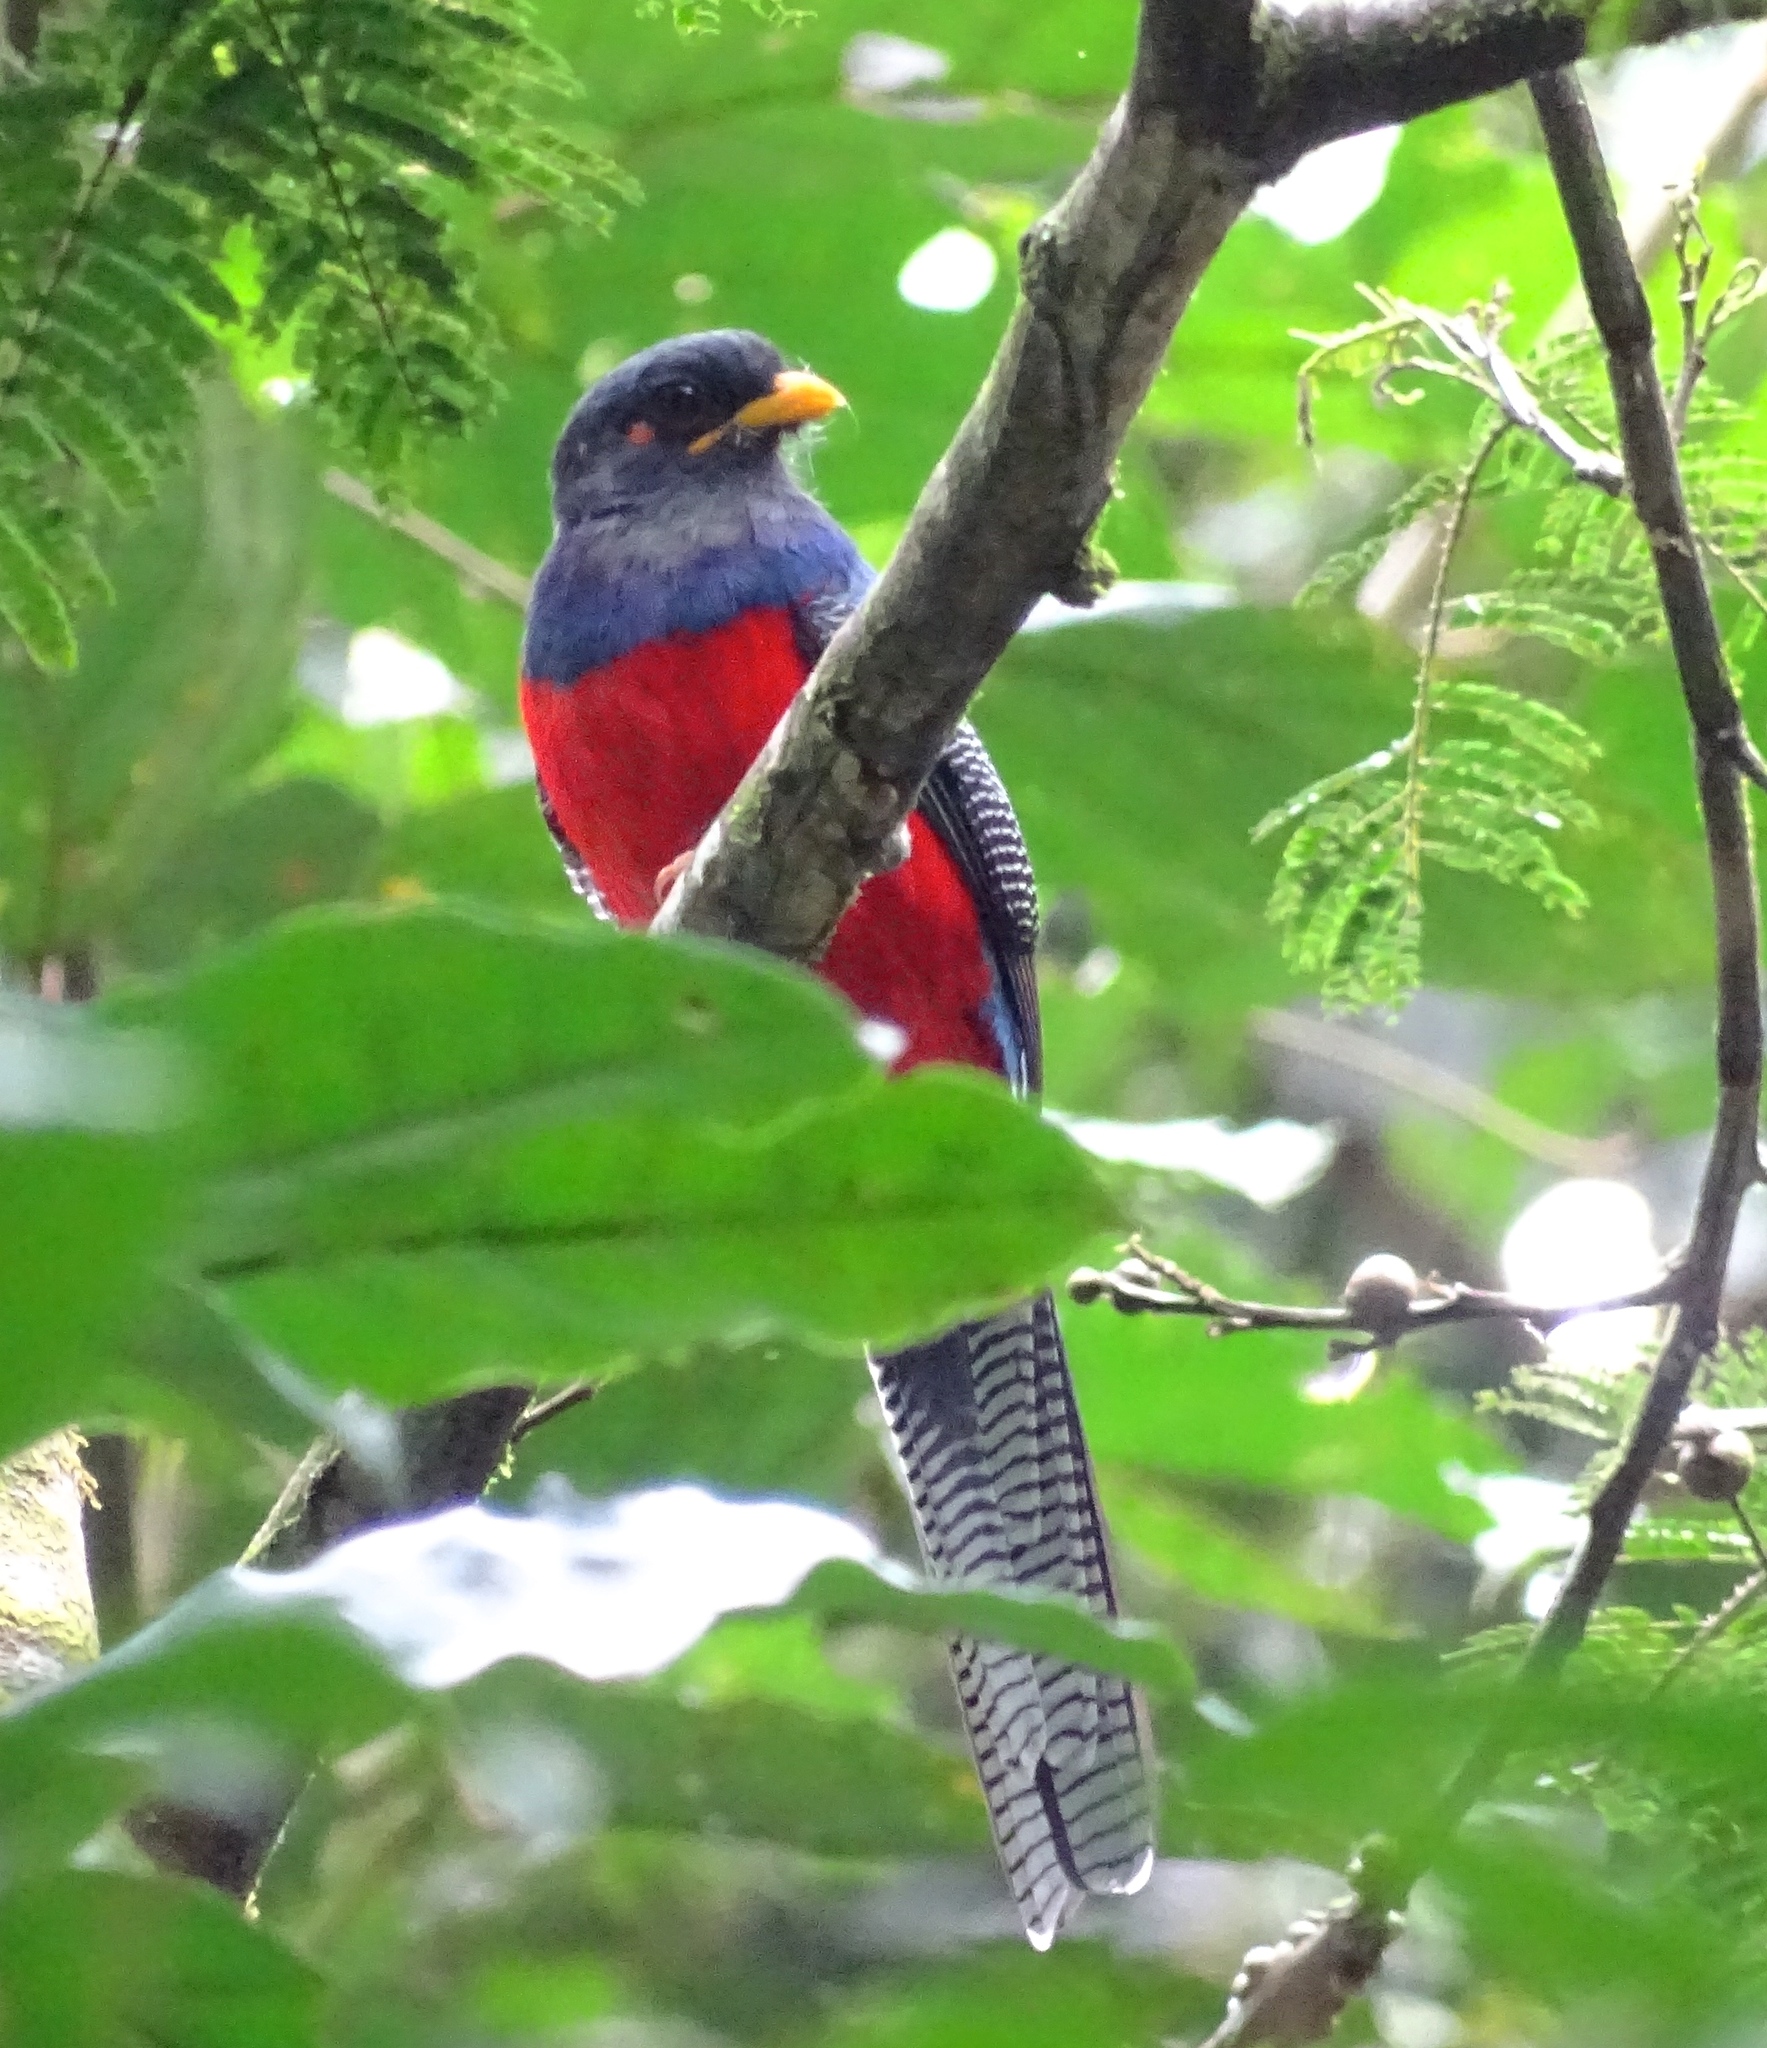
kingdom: Animalia
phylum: Chordata
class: Aves
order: Trogoniformes
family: Trogonidae
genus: Apaloderma
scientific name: Apaloderma vittatum
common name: Bar-tailed trogon
